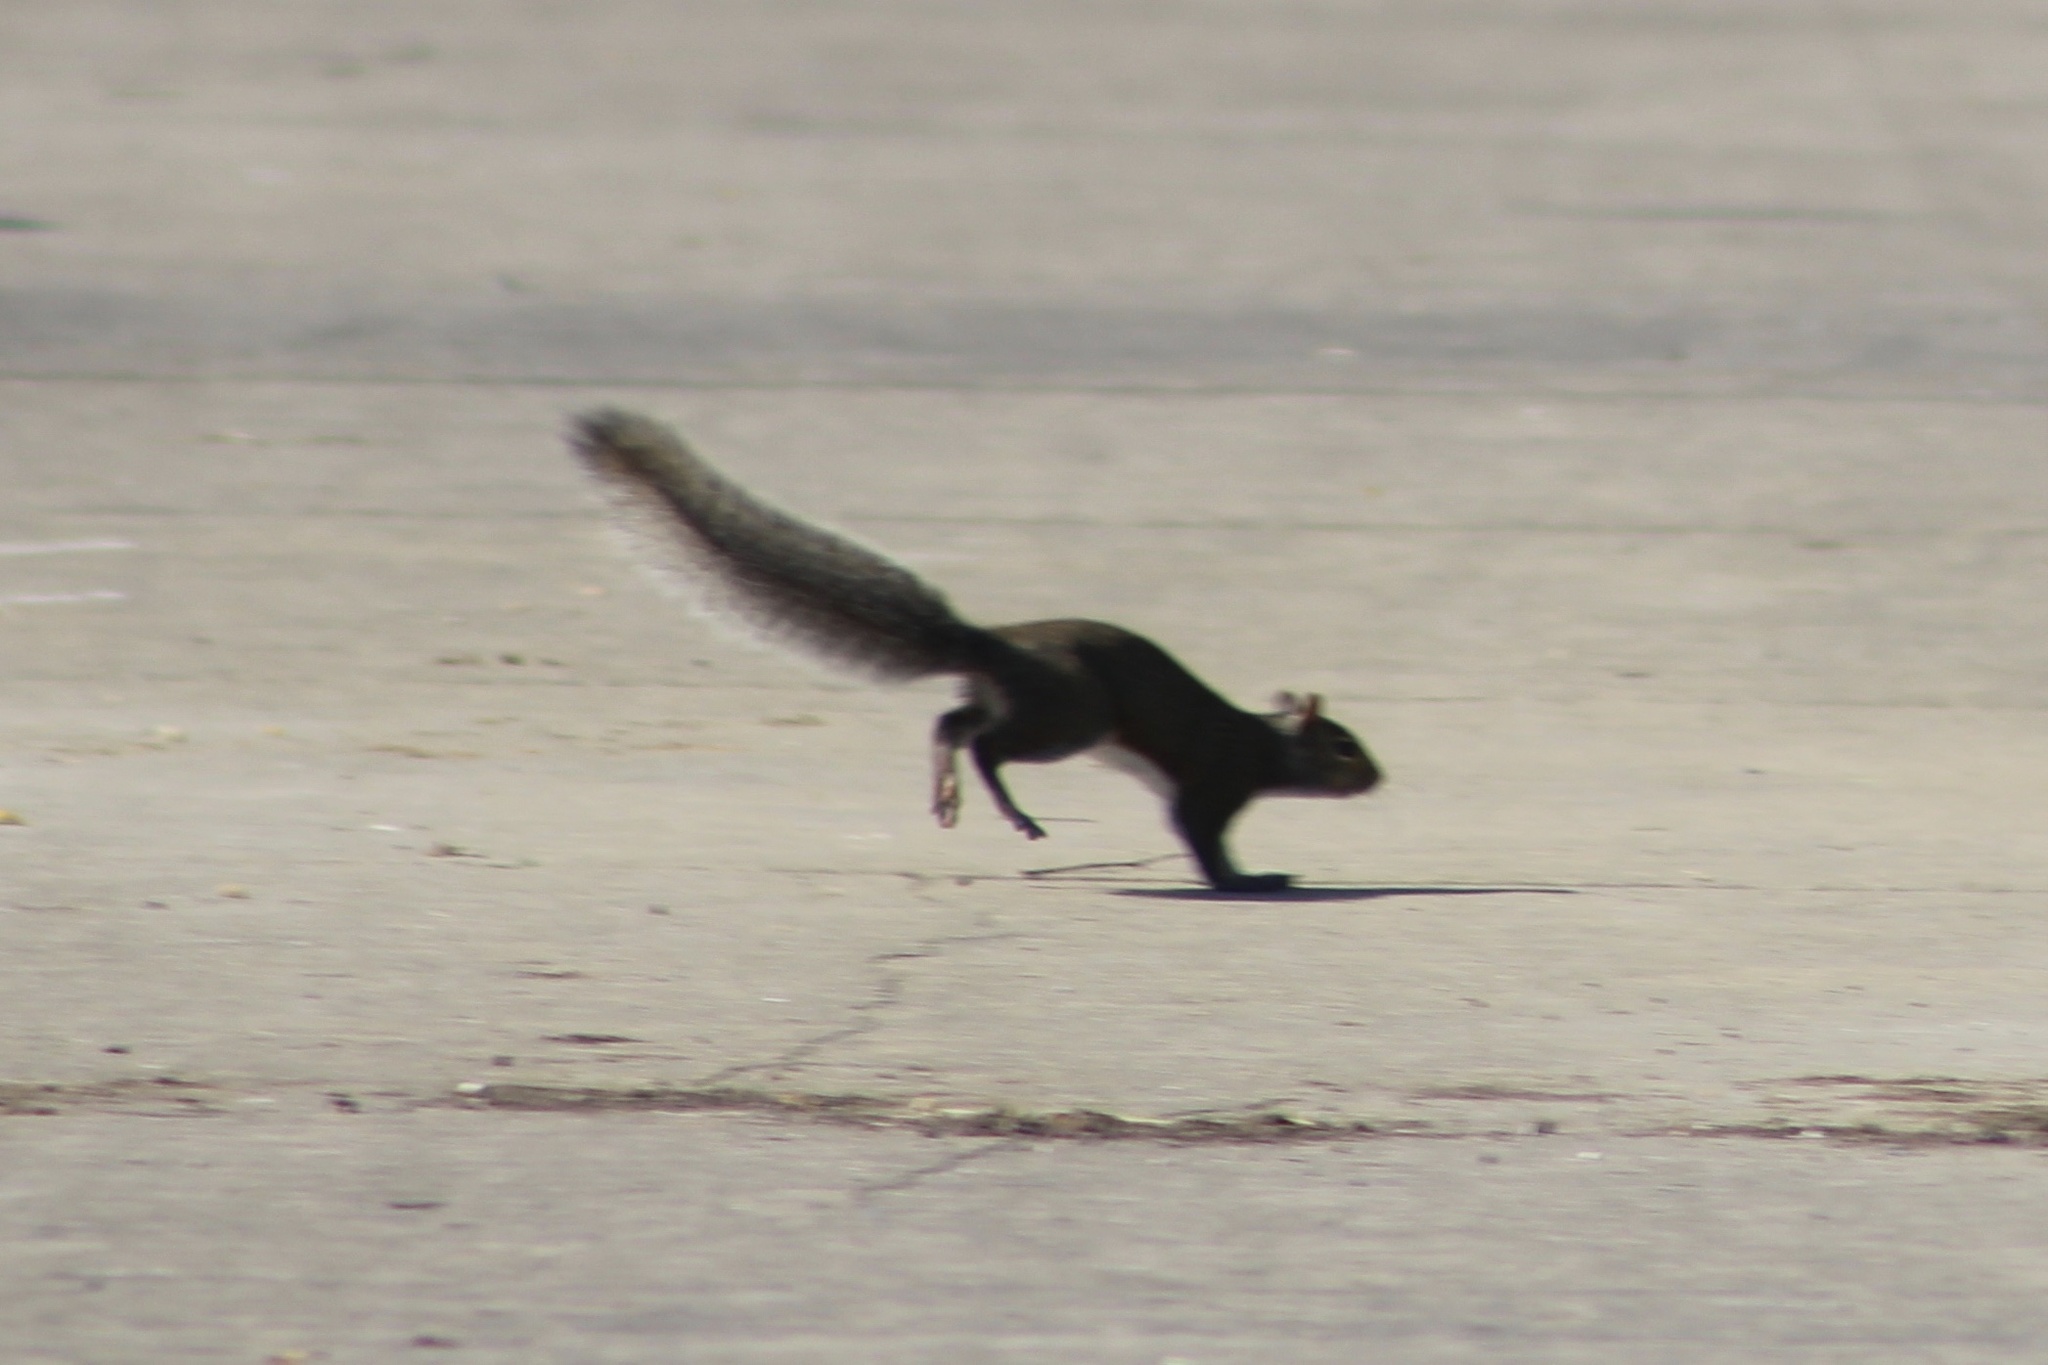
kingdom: Animalia
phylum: Chordata
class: Mammalia
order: Rodentia
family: Sciuridae
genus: Sciurus
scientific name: Sciurus carolinensis
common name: Eastern gray squirrel
